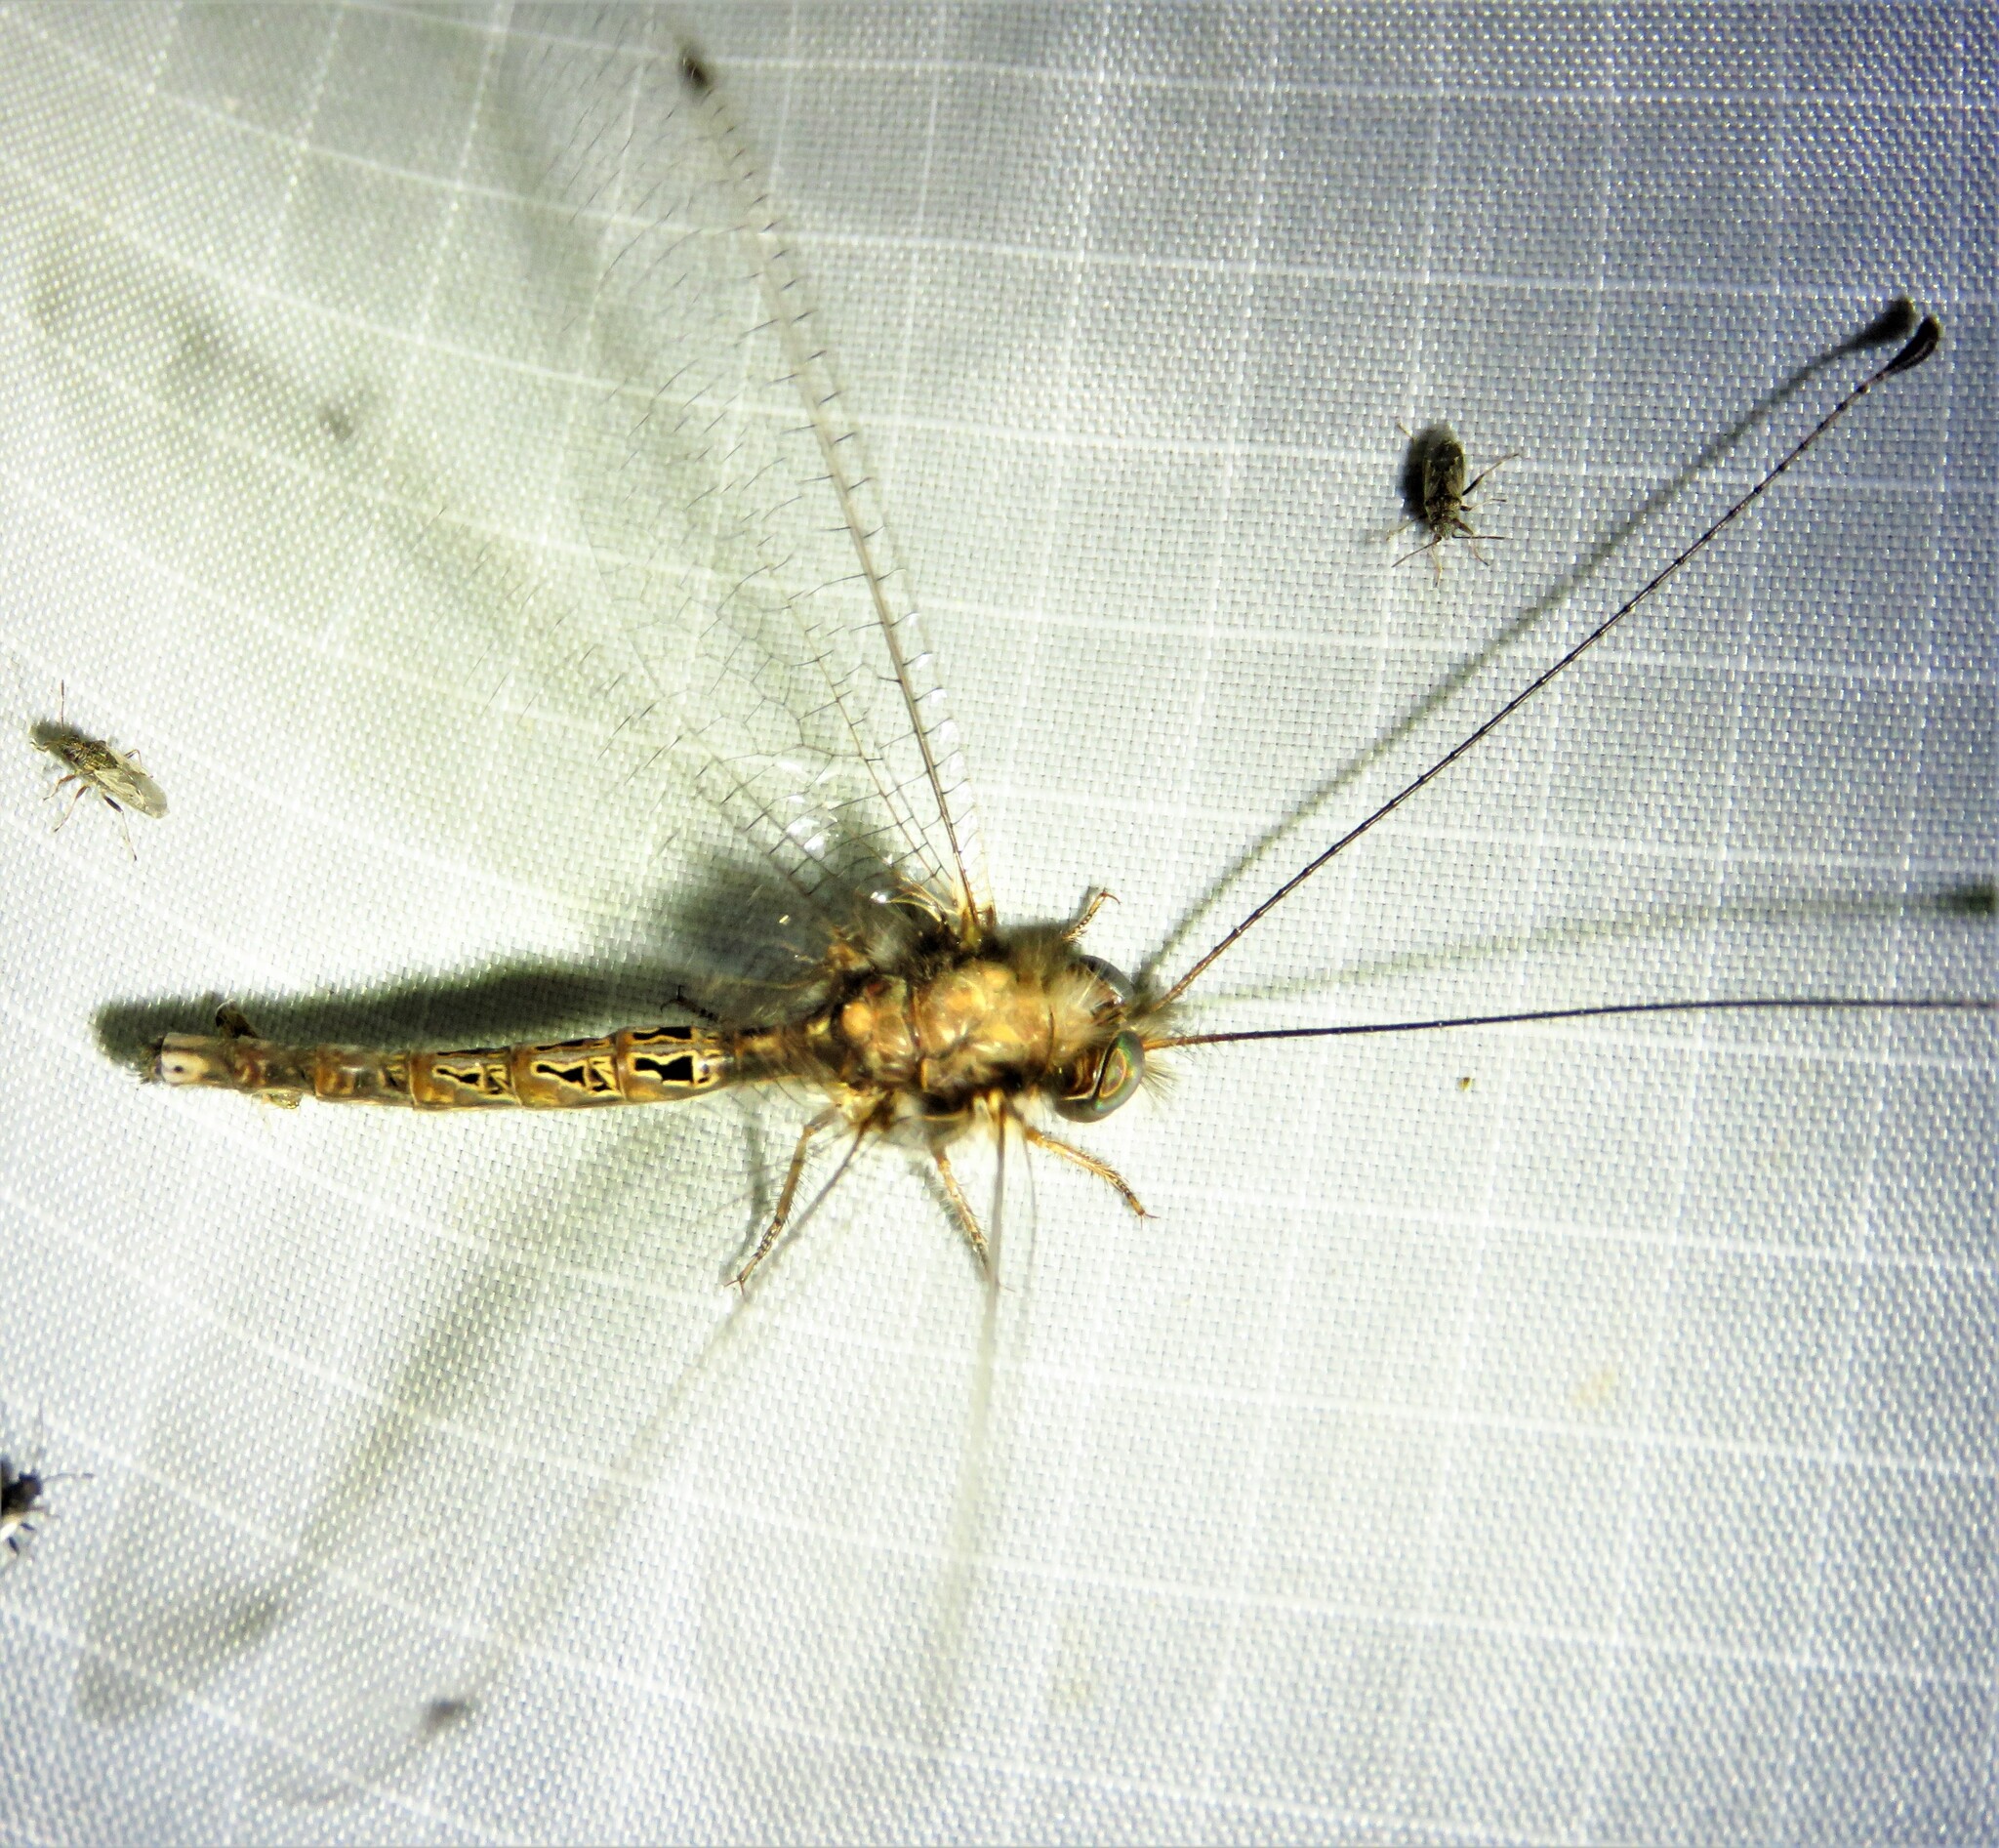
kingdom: Animalia
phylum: Arthropoda
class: Insecta
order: Neuroptera
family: Ascalaphidae
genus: Ululodes
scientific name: Ululodes macleayanus
